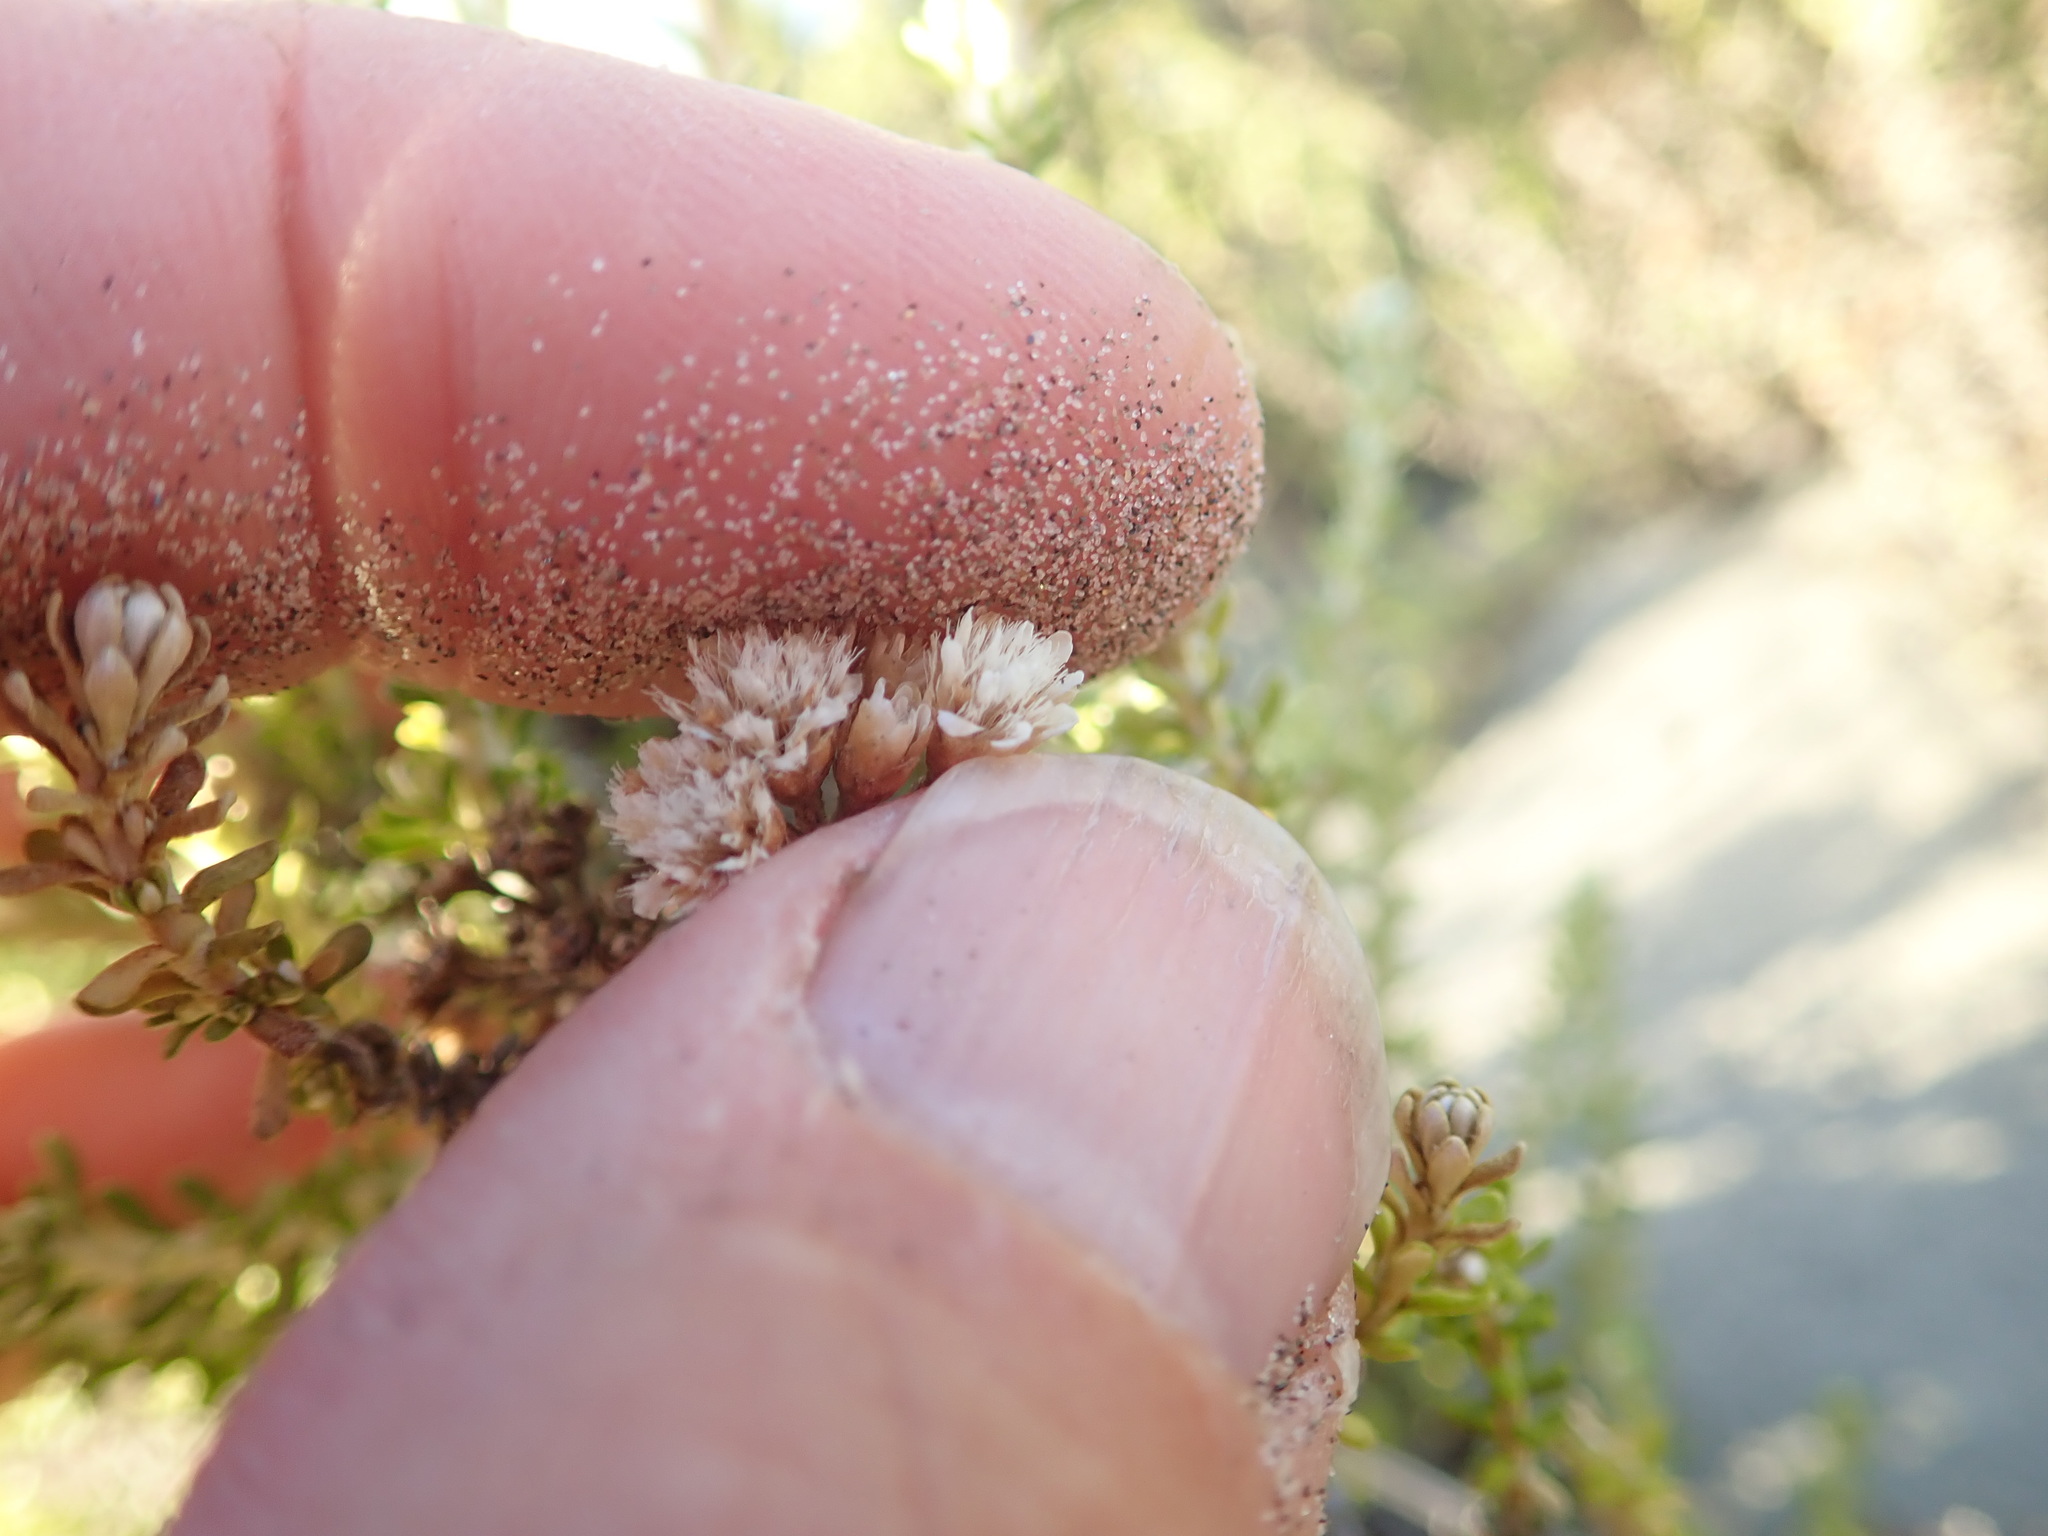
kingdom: Plantae
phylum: Tracheophyta
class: Magnoliopsida
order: Asterales
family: Asteraceae
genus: Ozothamnus
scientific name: Ozothamnus leptophyllus
